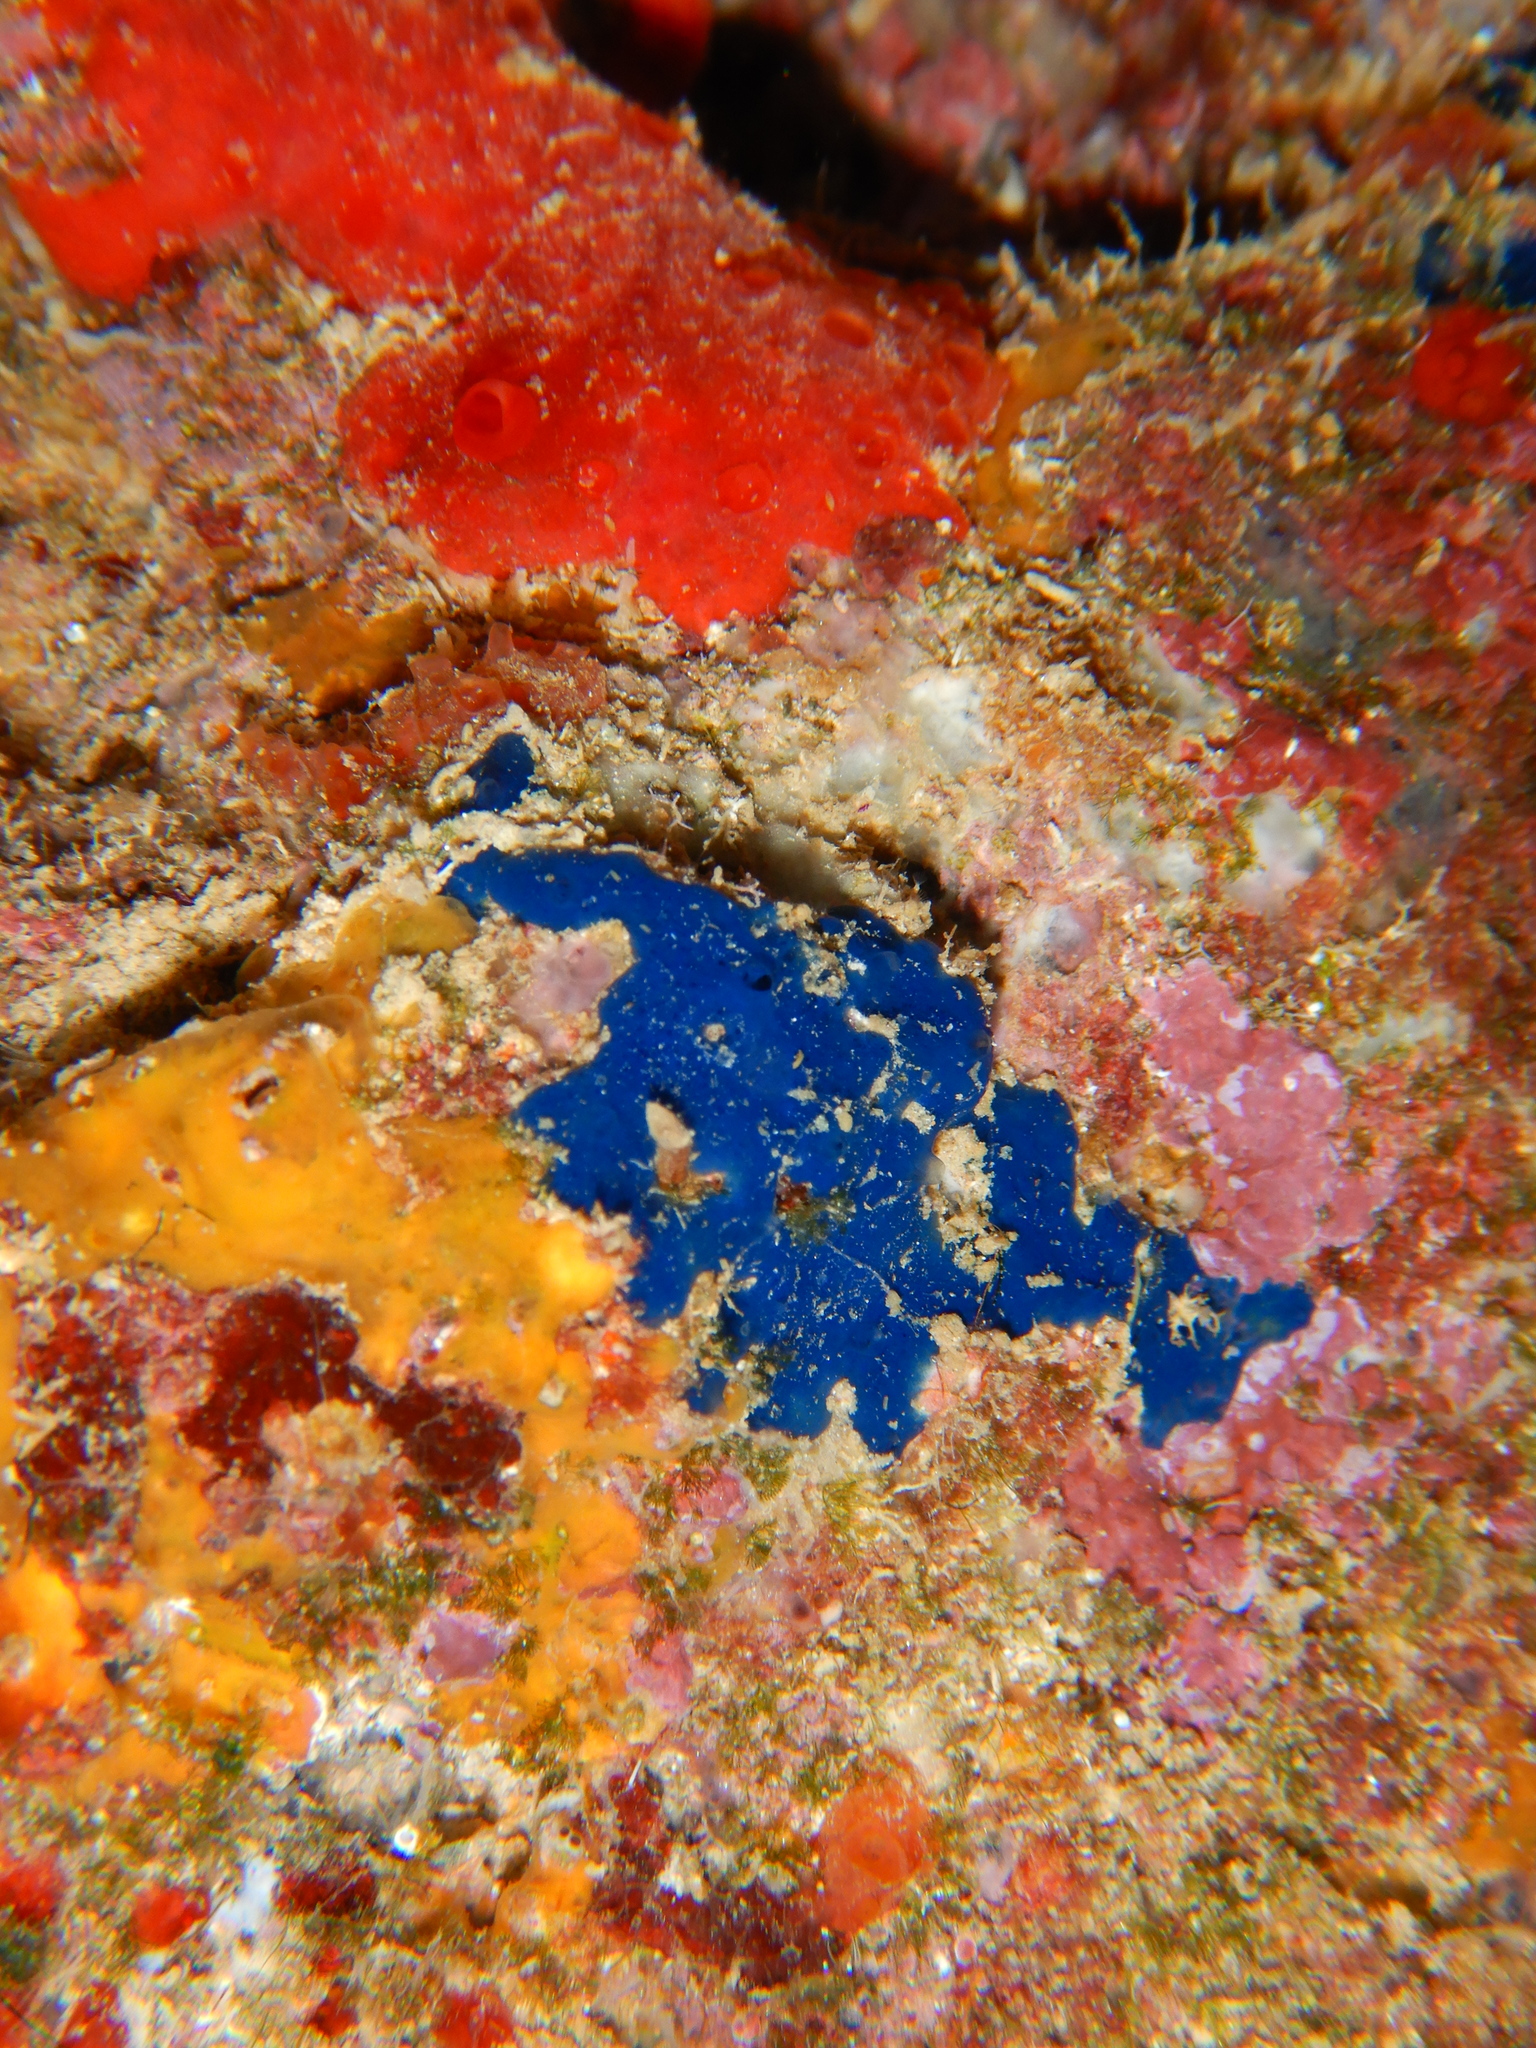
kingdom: Animalia
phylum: Porifera
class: Demospongiae
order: Suberitida
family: Suberitidae
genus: Terpios
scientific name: Terpios gelatinosus
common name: Blue encrusting sponge
